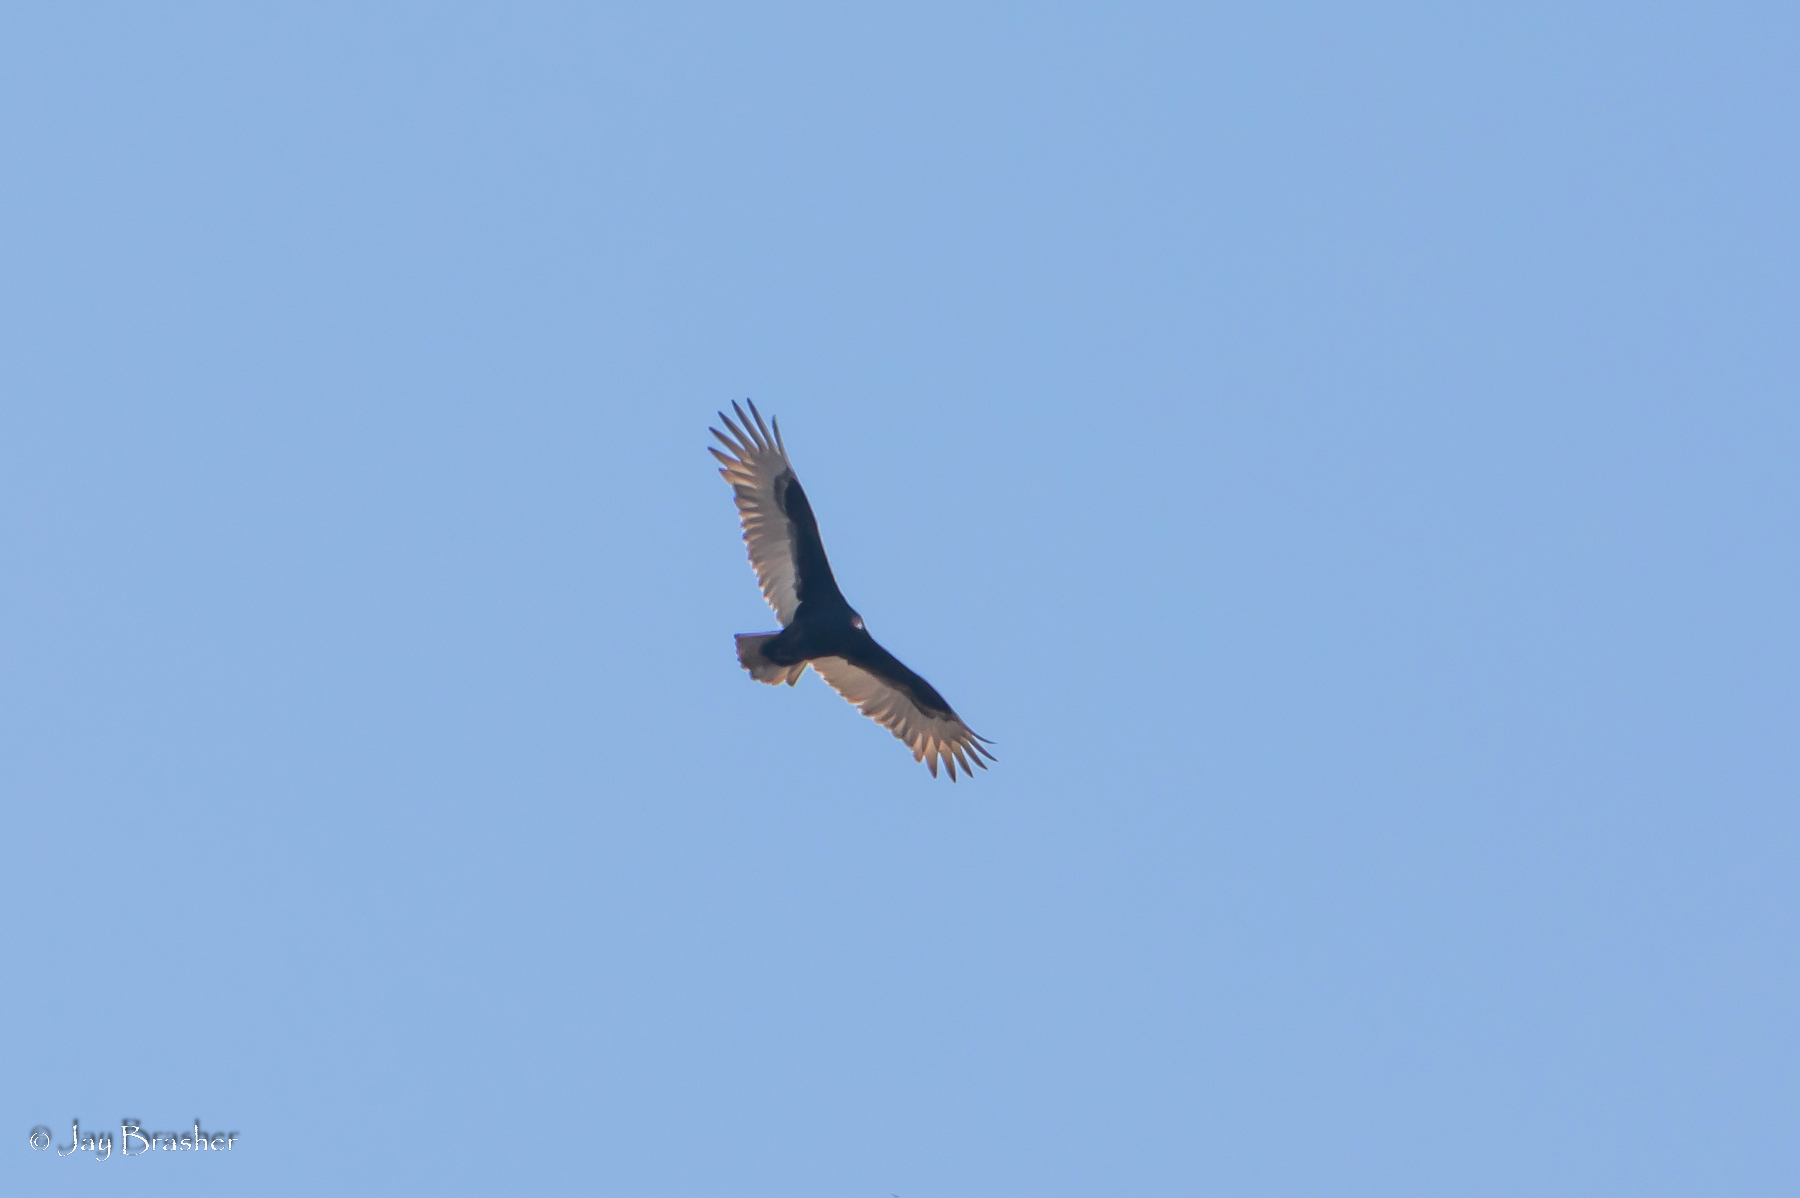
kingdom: Animalia
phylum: Chordata
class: Aves
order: Accipitriformes
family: Cathartidae
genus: Cathartes
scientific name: Cathartes aura
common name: Turkey vulture
